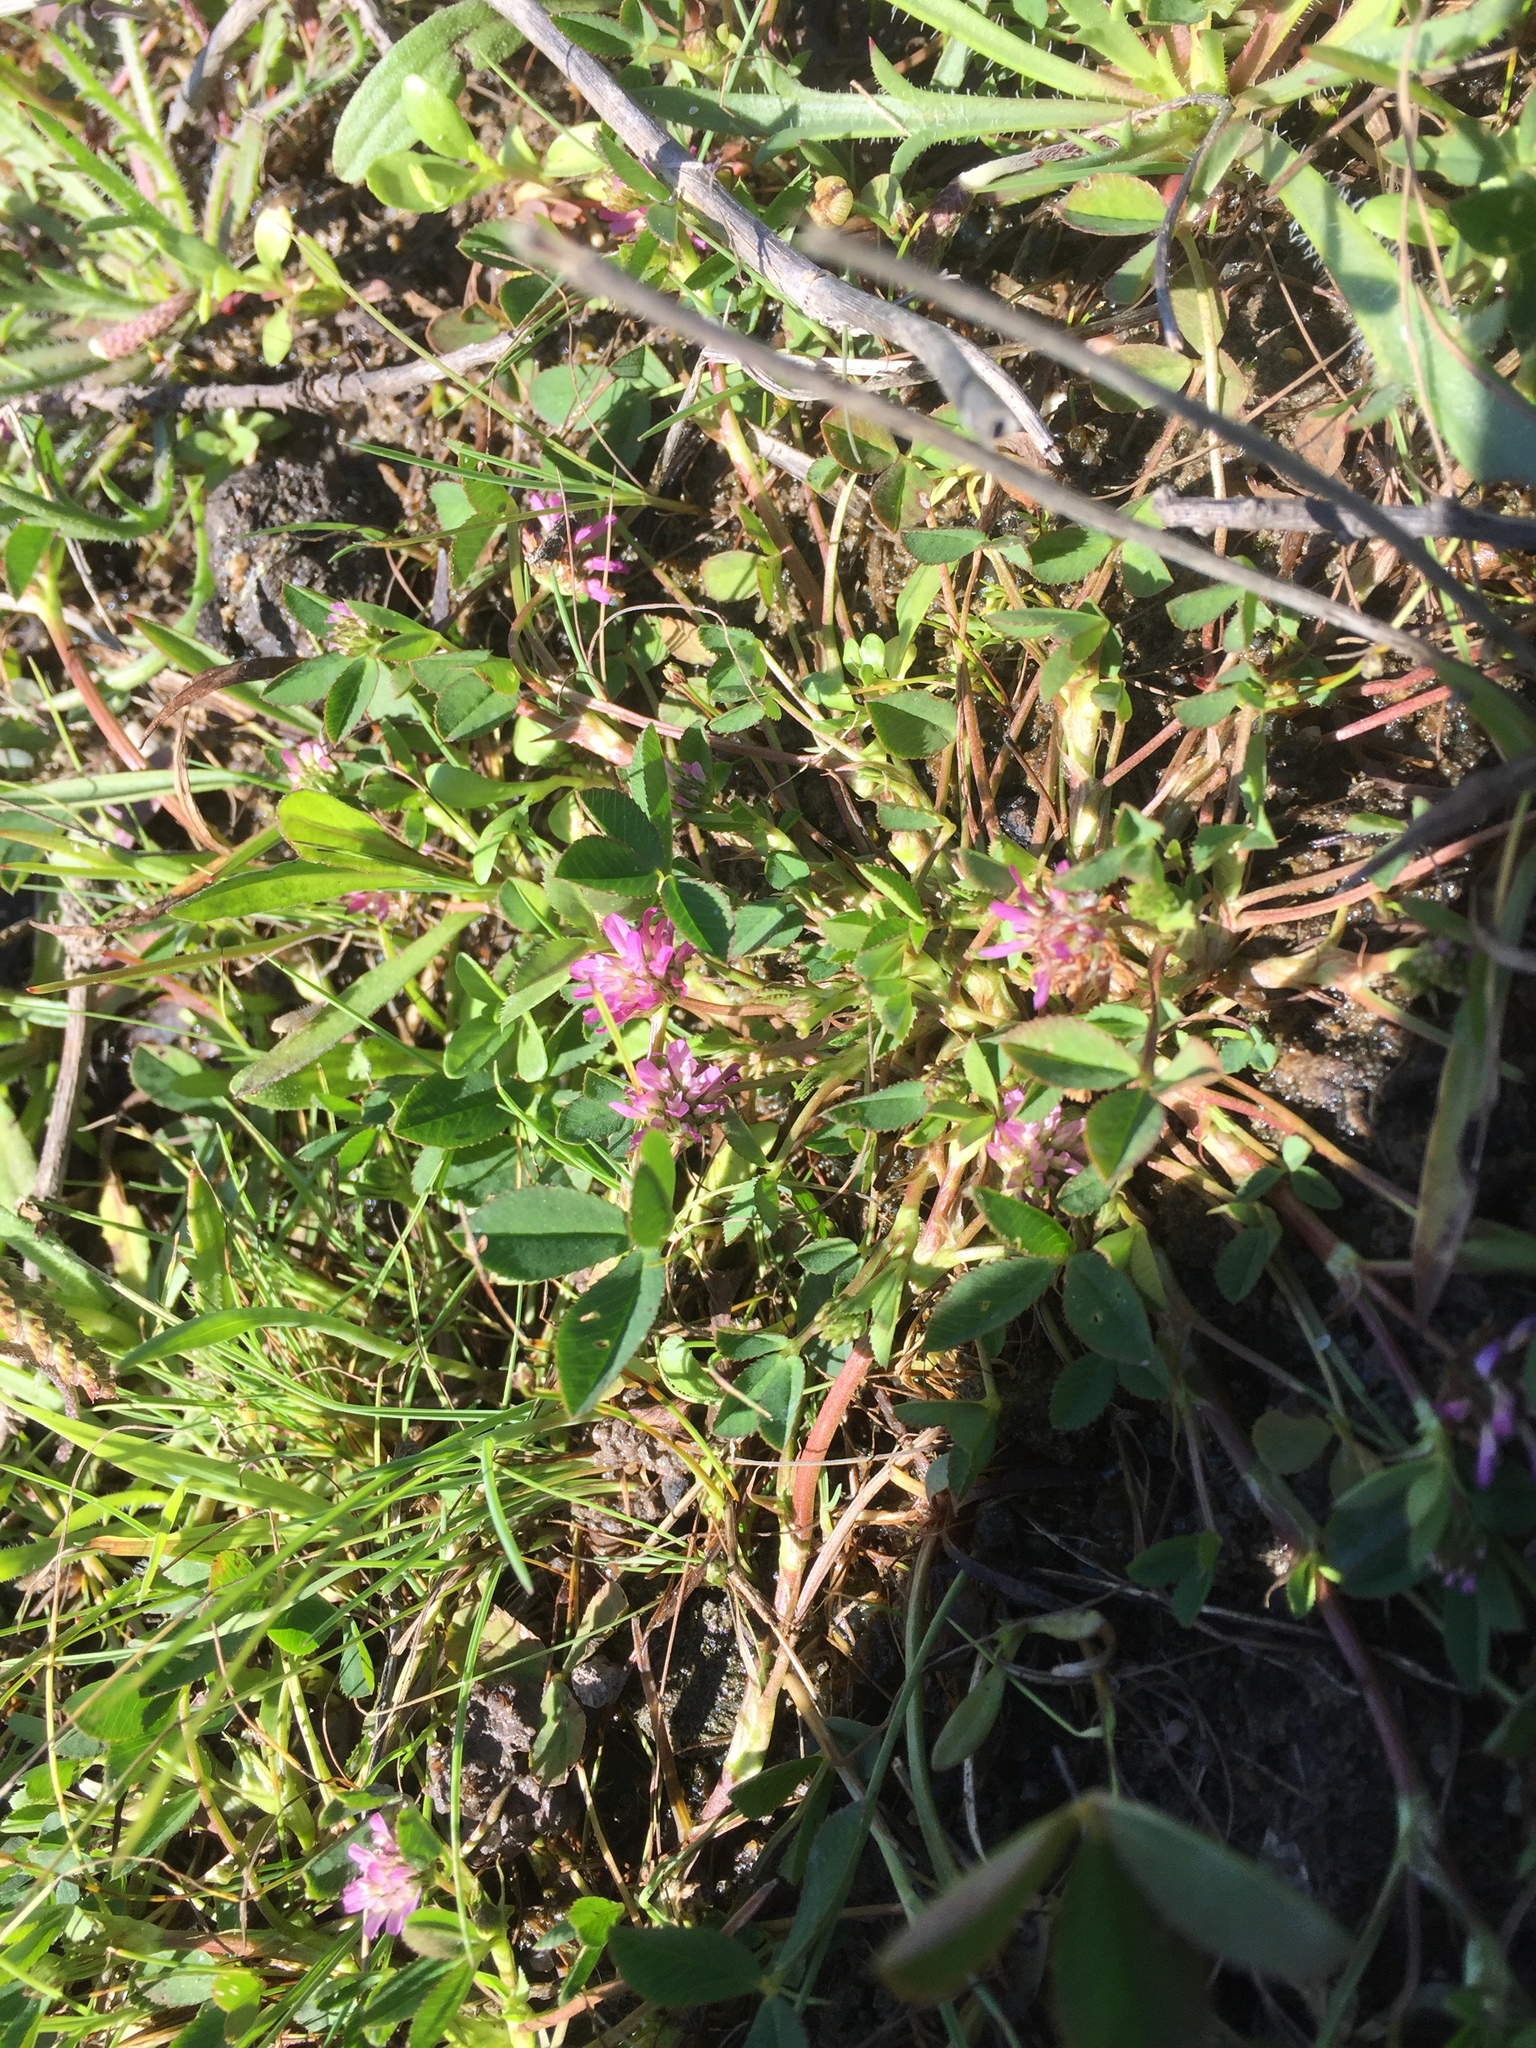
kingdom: Plantae
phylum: Tracheophyta
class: Magnoliopsida
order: Fabales
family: Fabaceae
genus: Trifolium
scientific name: Trifolium resupinatum
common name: Reversed clover
